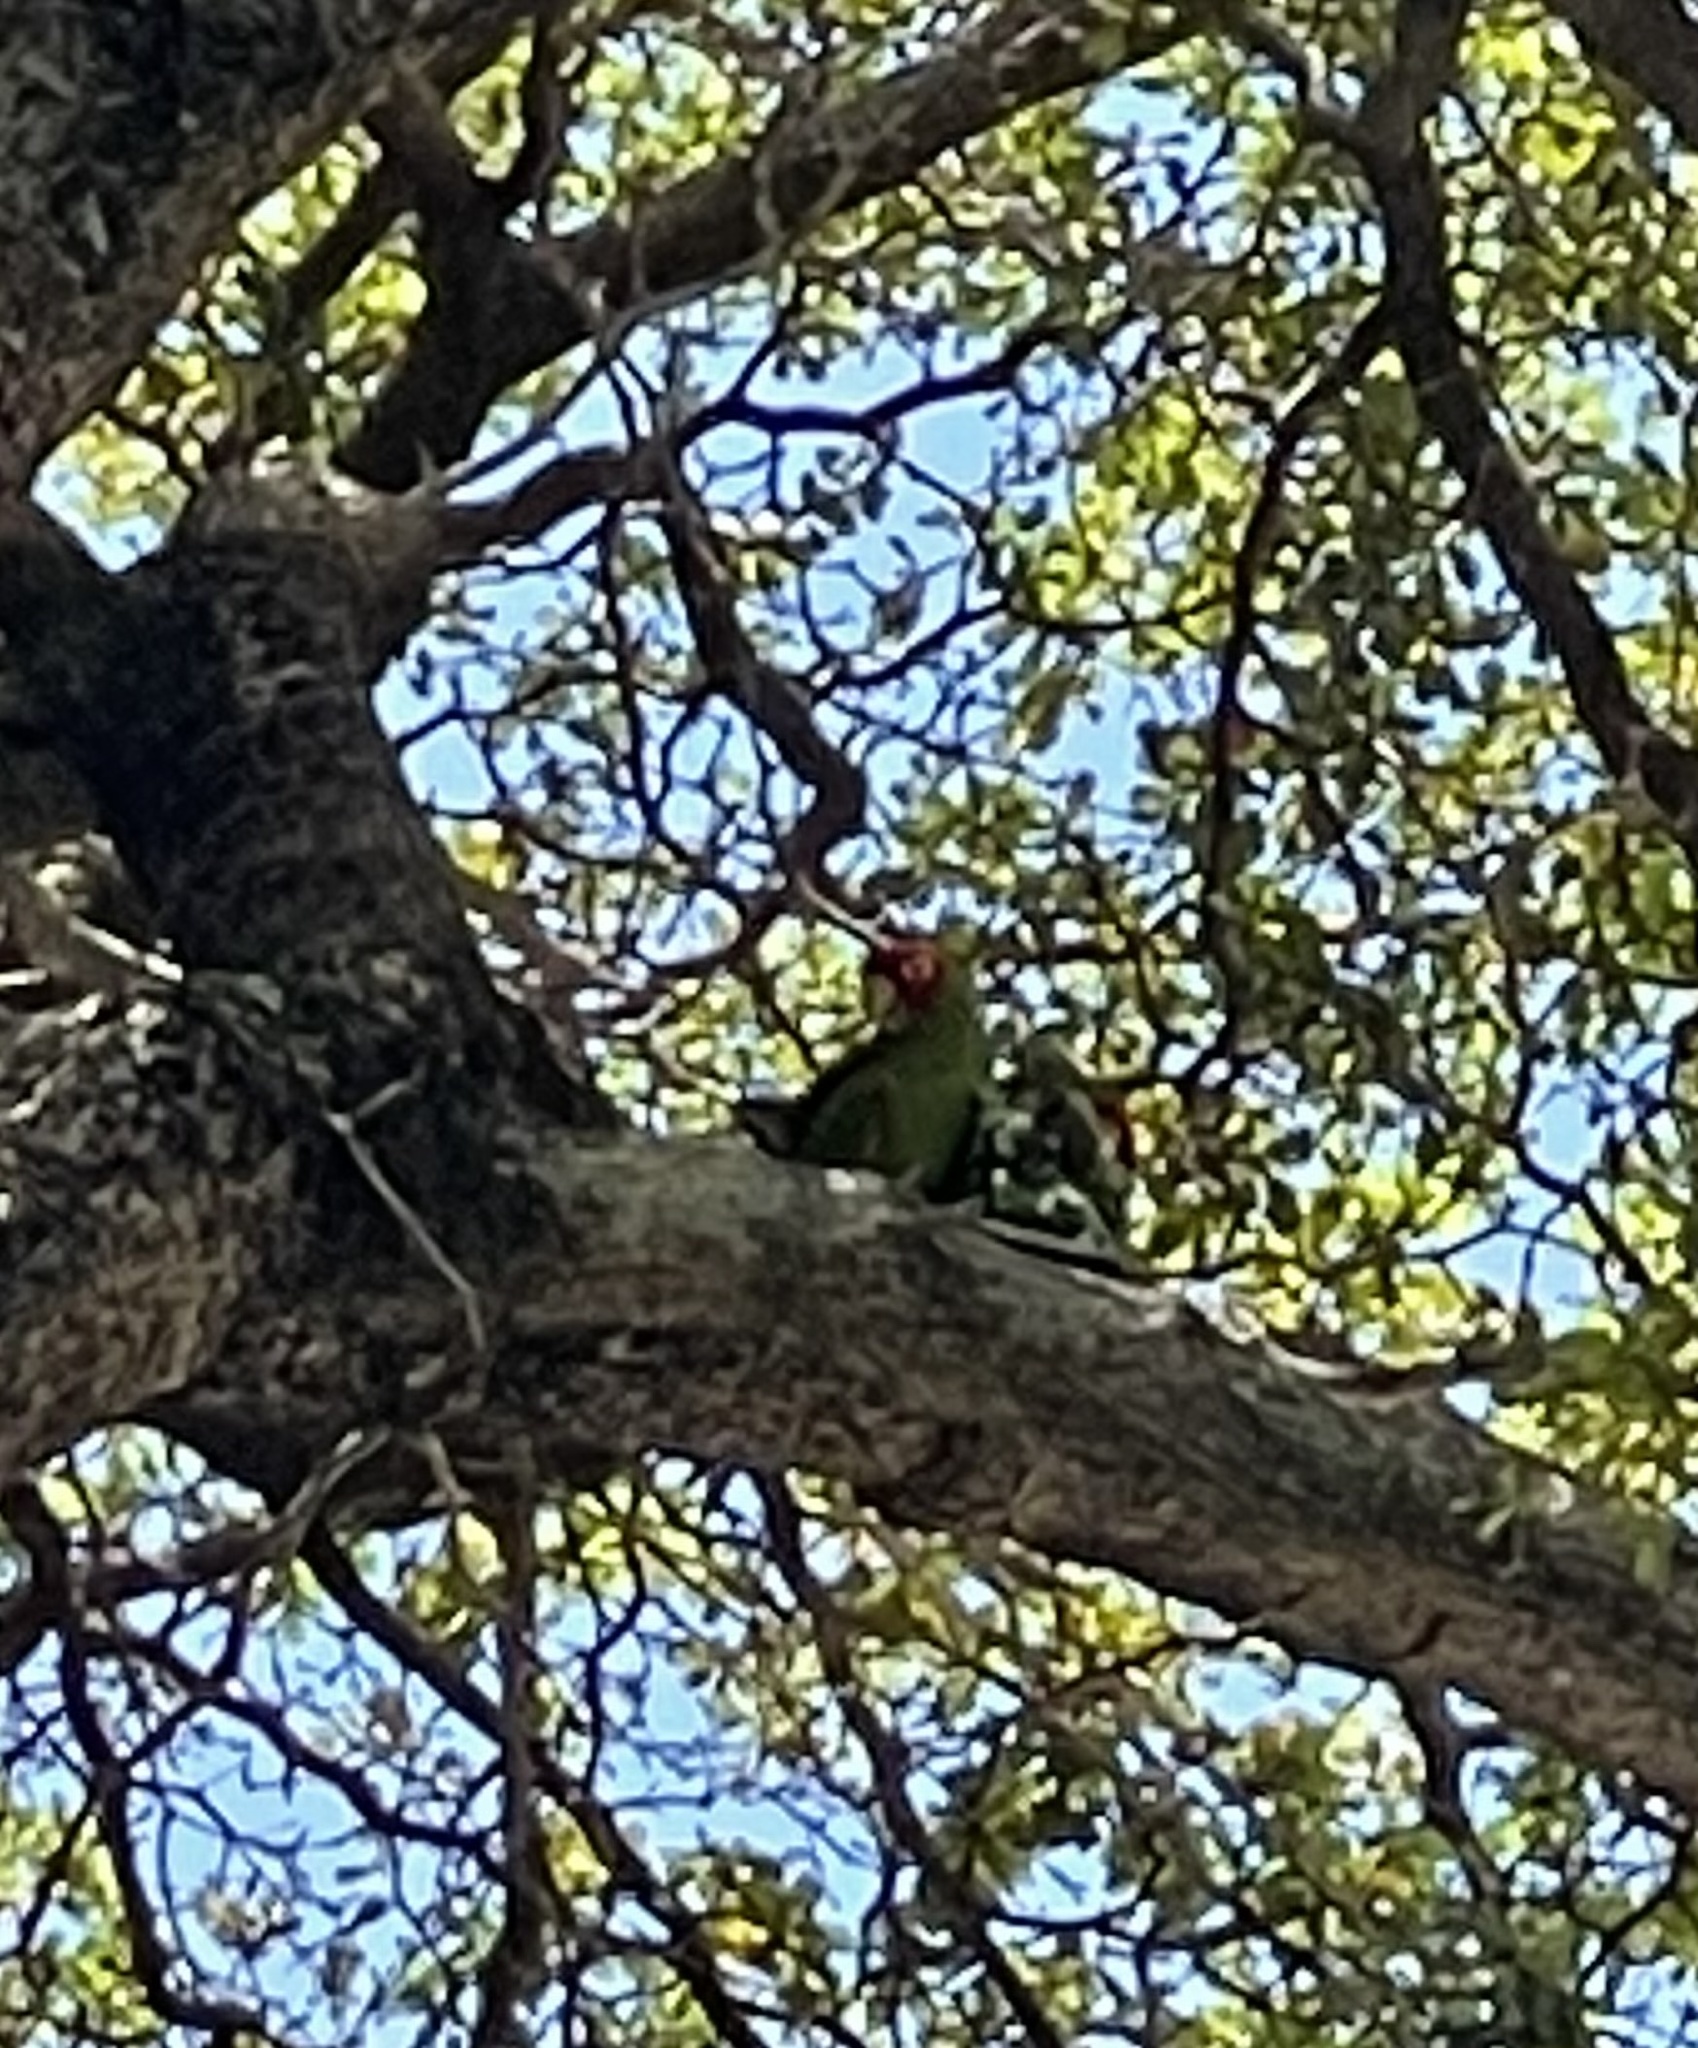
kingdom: Animalia
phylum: Chordata
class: Aves
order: Psittaciformes
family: Psittacidae
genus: Aratinga
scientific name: Aratinga erythrogenys
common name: Red-masked parakeet
